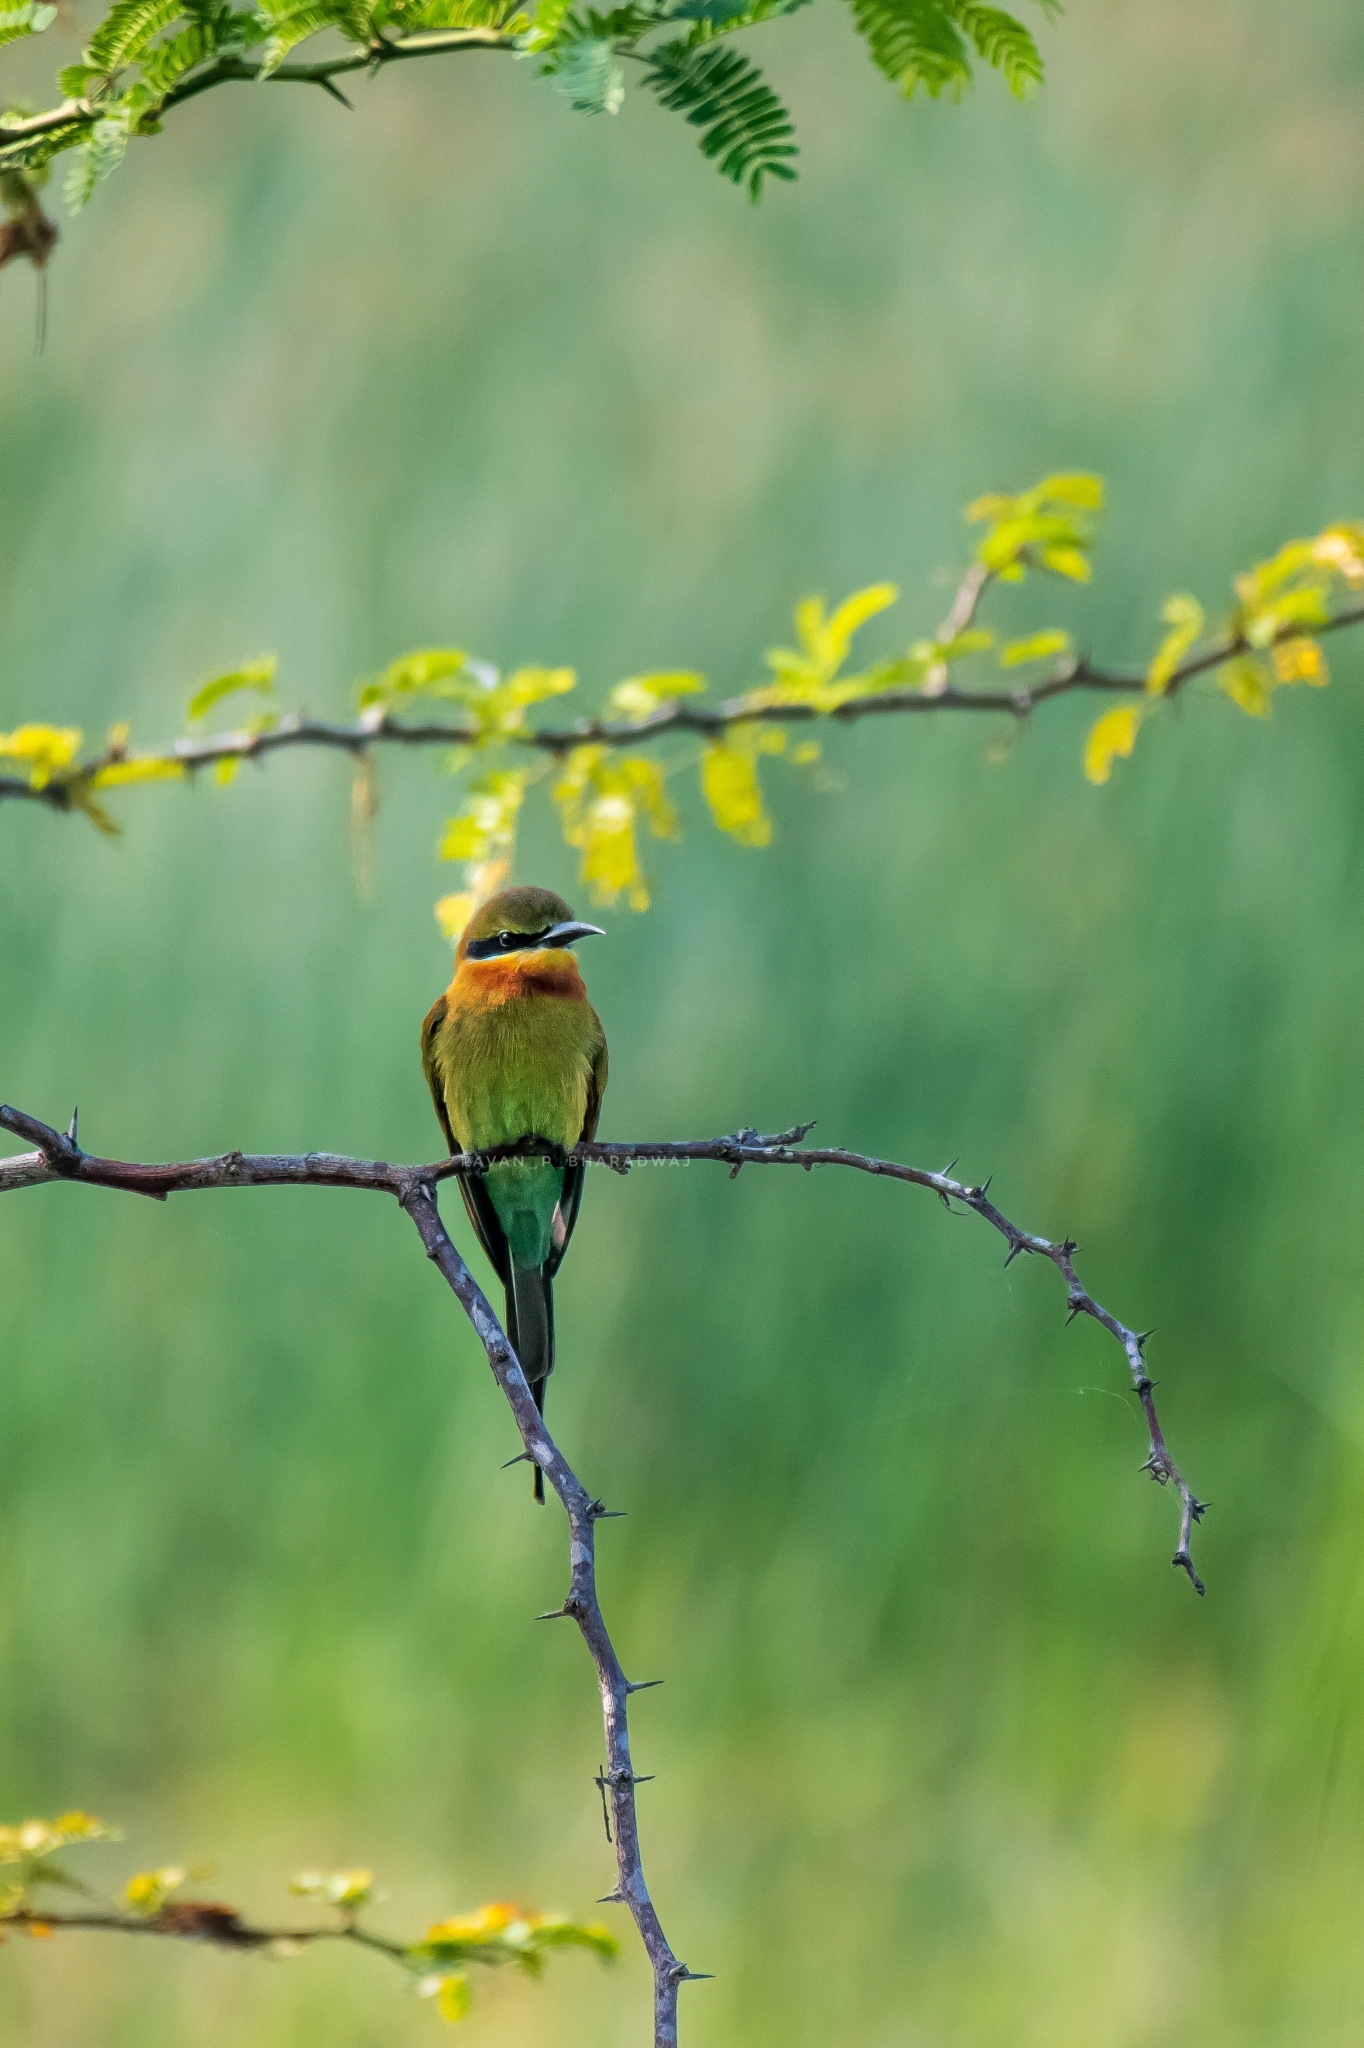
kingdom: Animalia
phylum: Chordata
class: Aves
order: Coraciiformes
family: Meropidae
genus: Merops
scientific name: Merops philippinus
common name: Blue-tailed bee-eater
